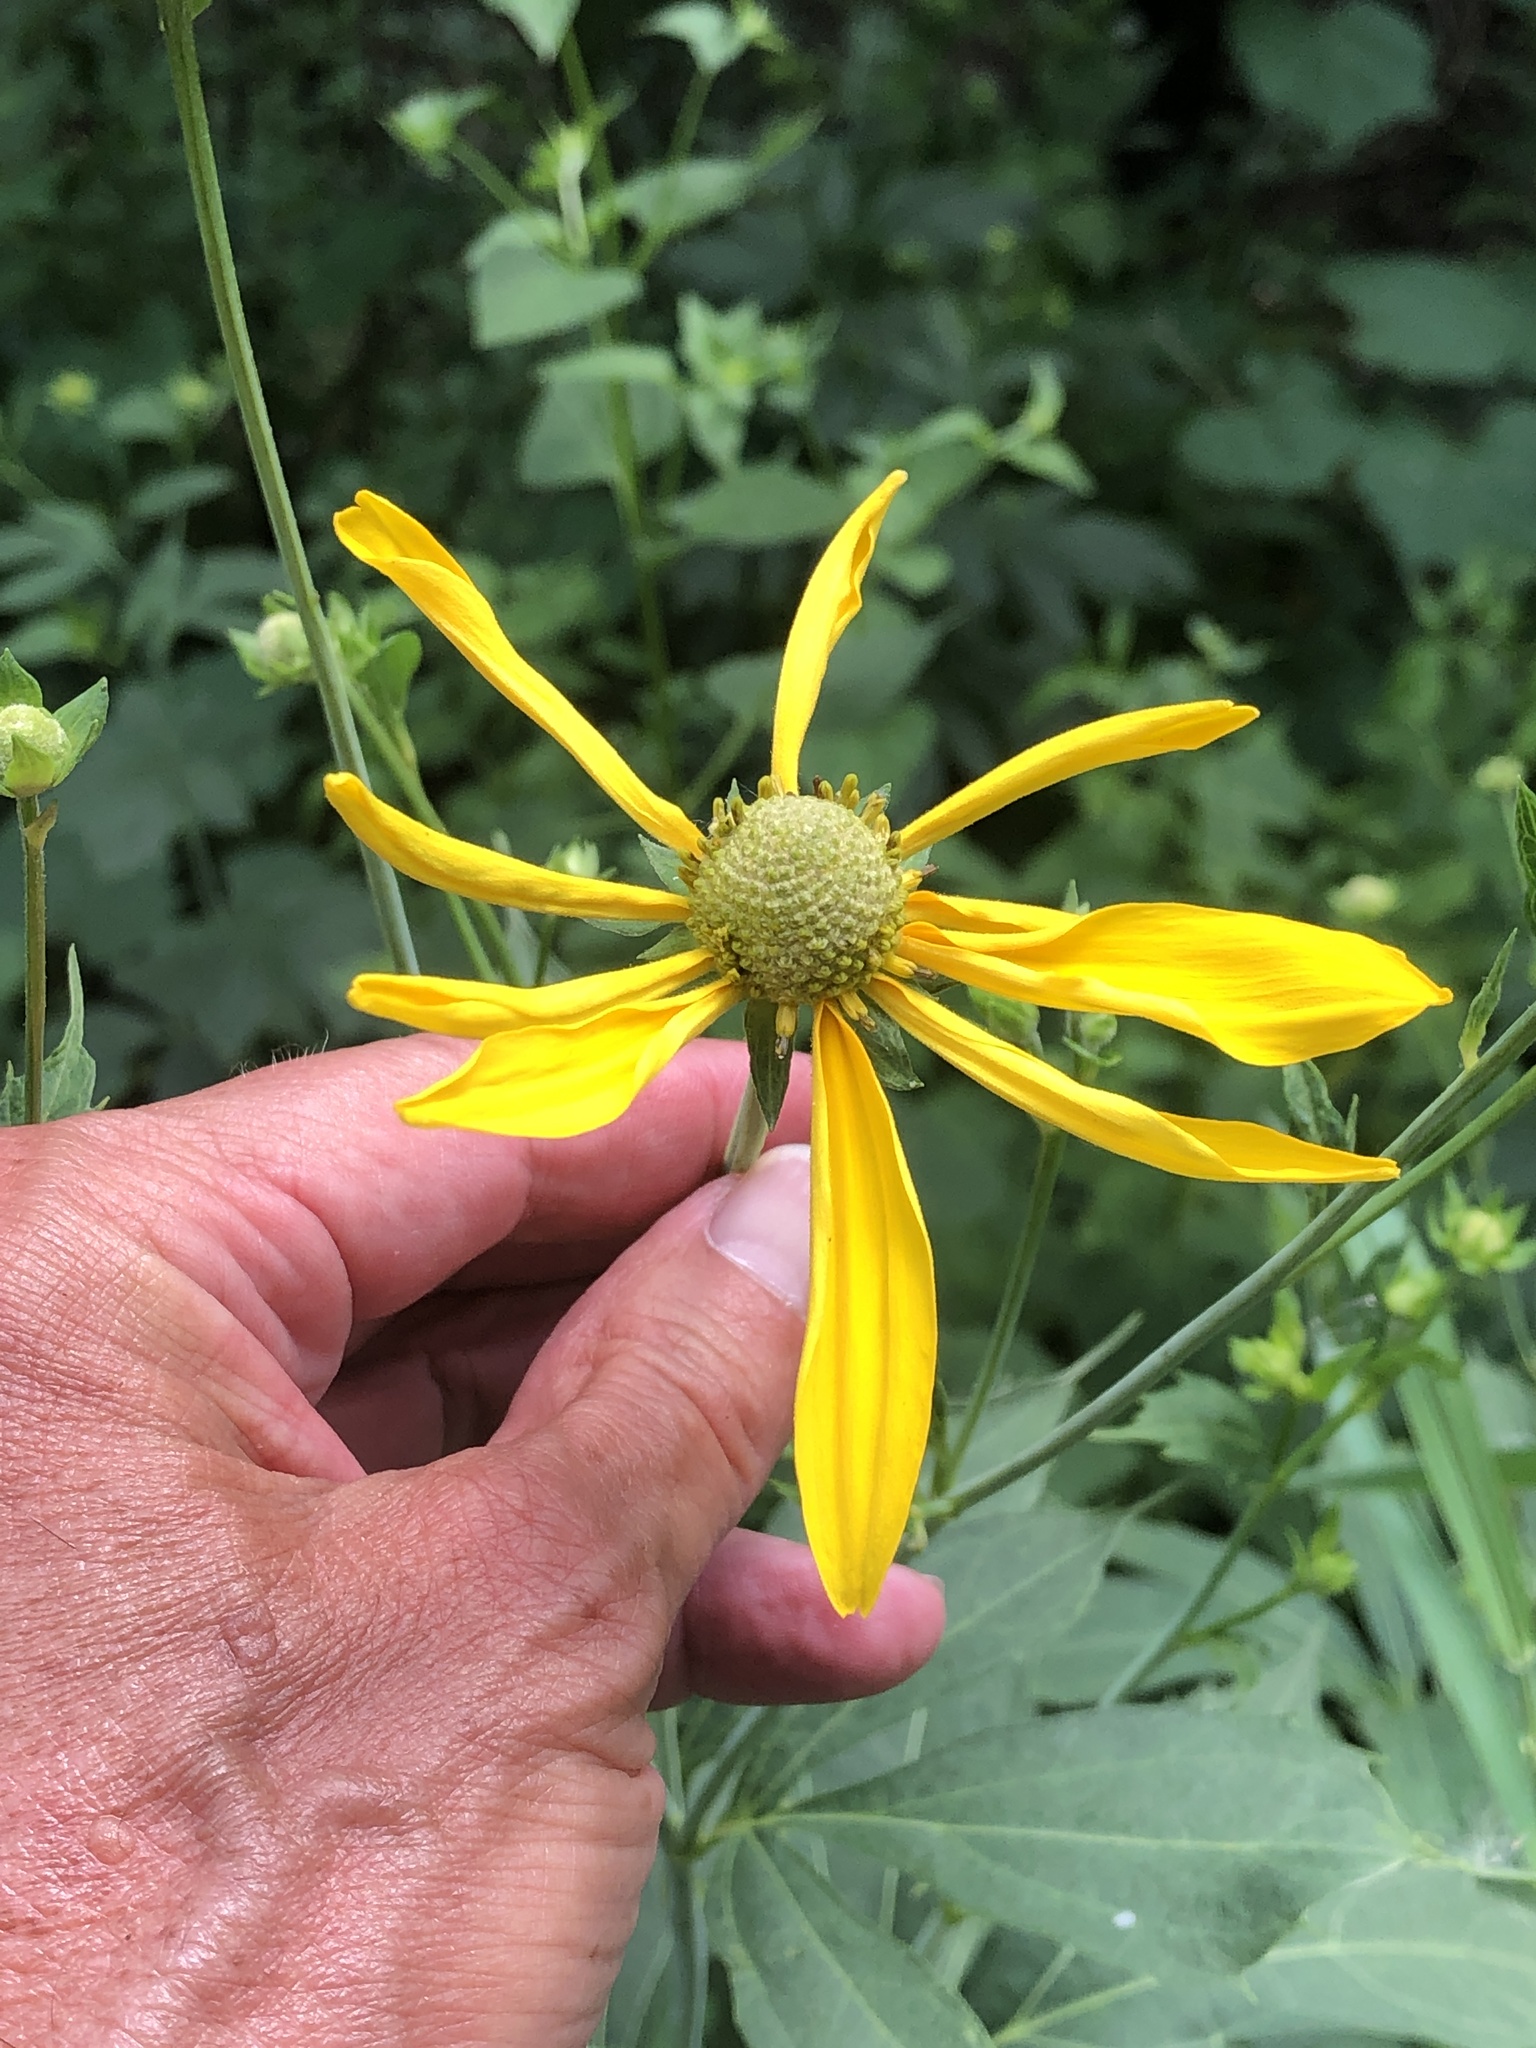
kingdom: Plantae
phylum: Tracheophyta
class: Magnoliopsida
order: Asterales
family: Asteraceae
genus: Rudbeckia
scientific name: Rudbeckia laciniata
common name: Coneflower
